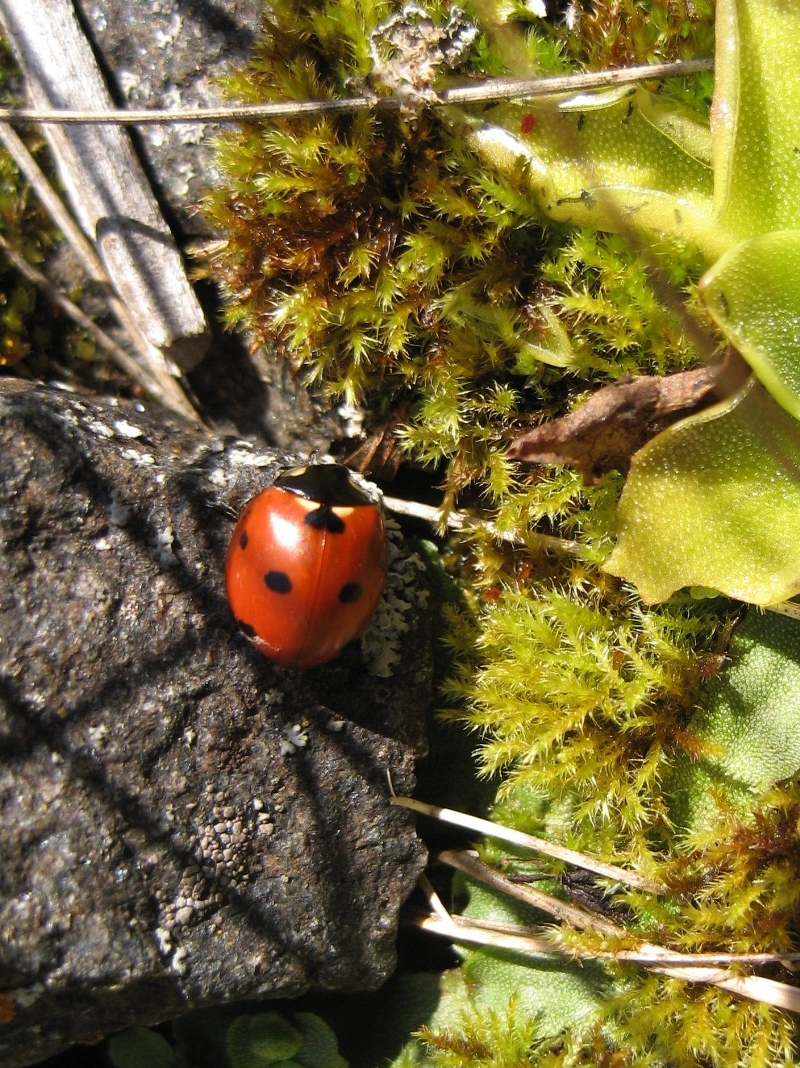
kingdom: Animalia
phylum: Arthropoda
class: Insecta
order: Coleoptera
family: Coccinellidae
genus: Coccinella
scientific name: Coccinella septempunctata
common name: Sevenspotted lady beetle
